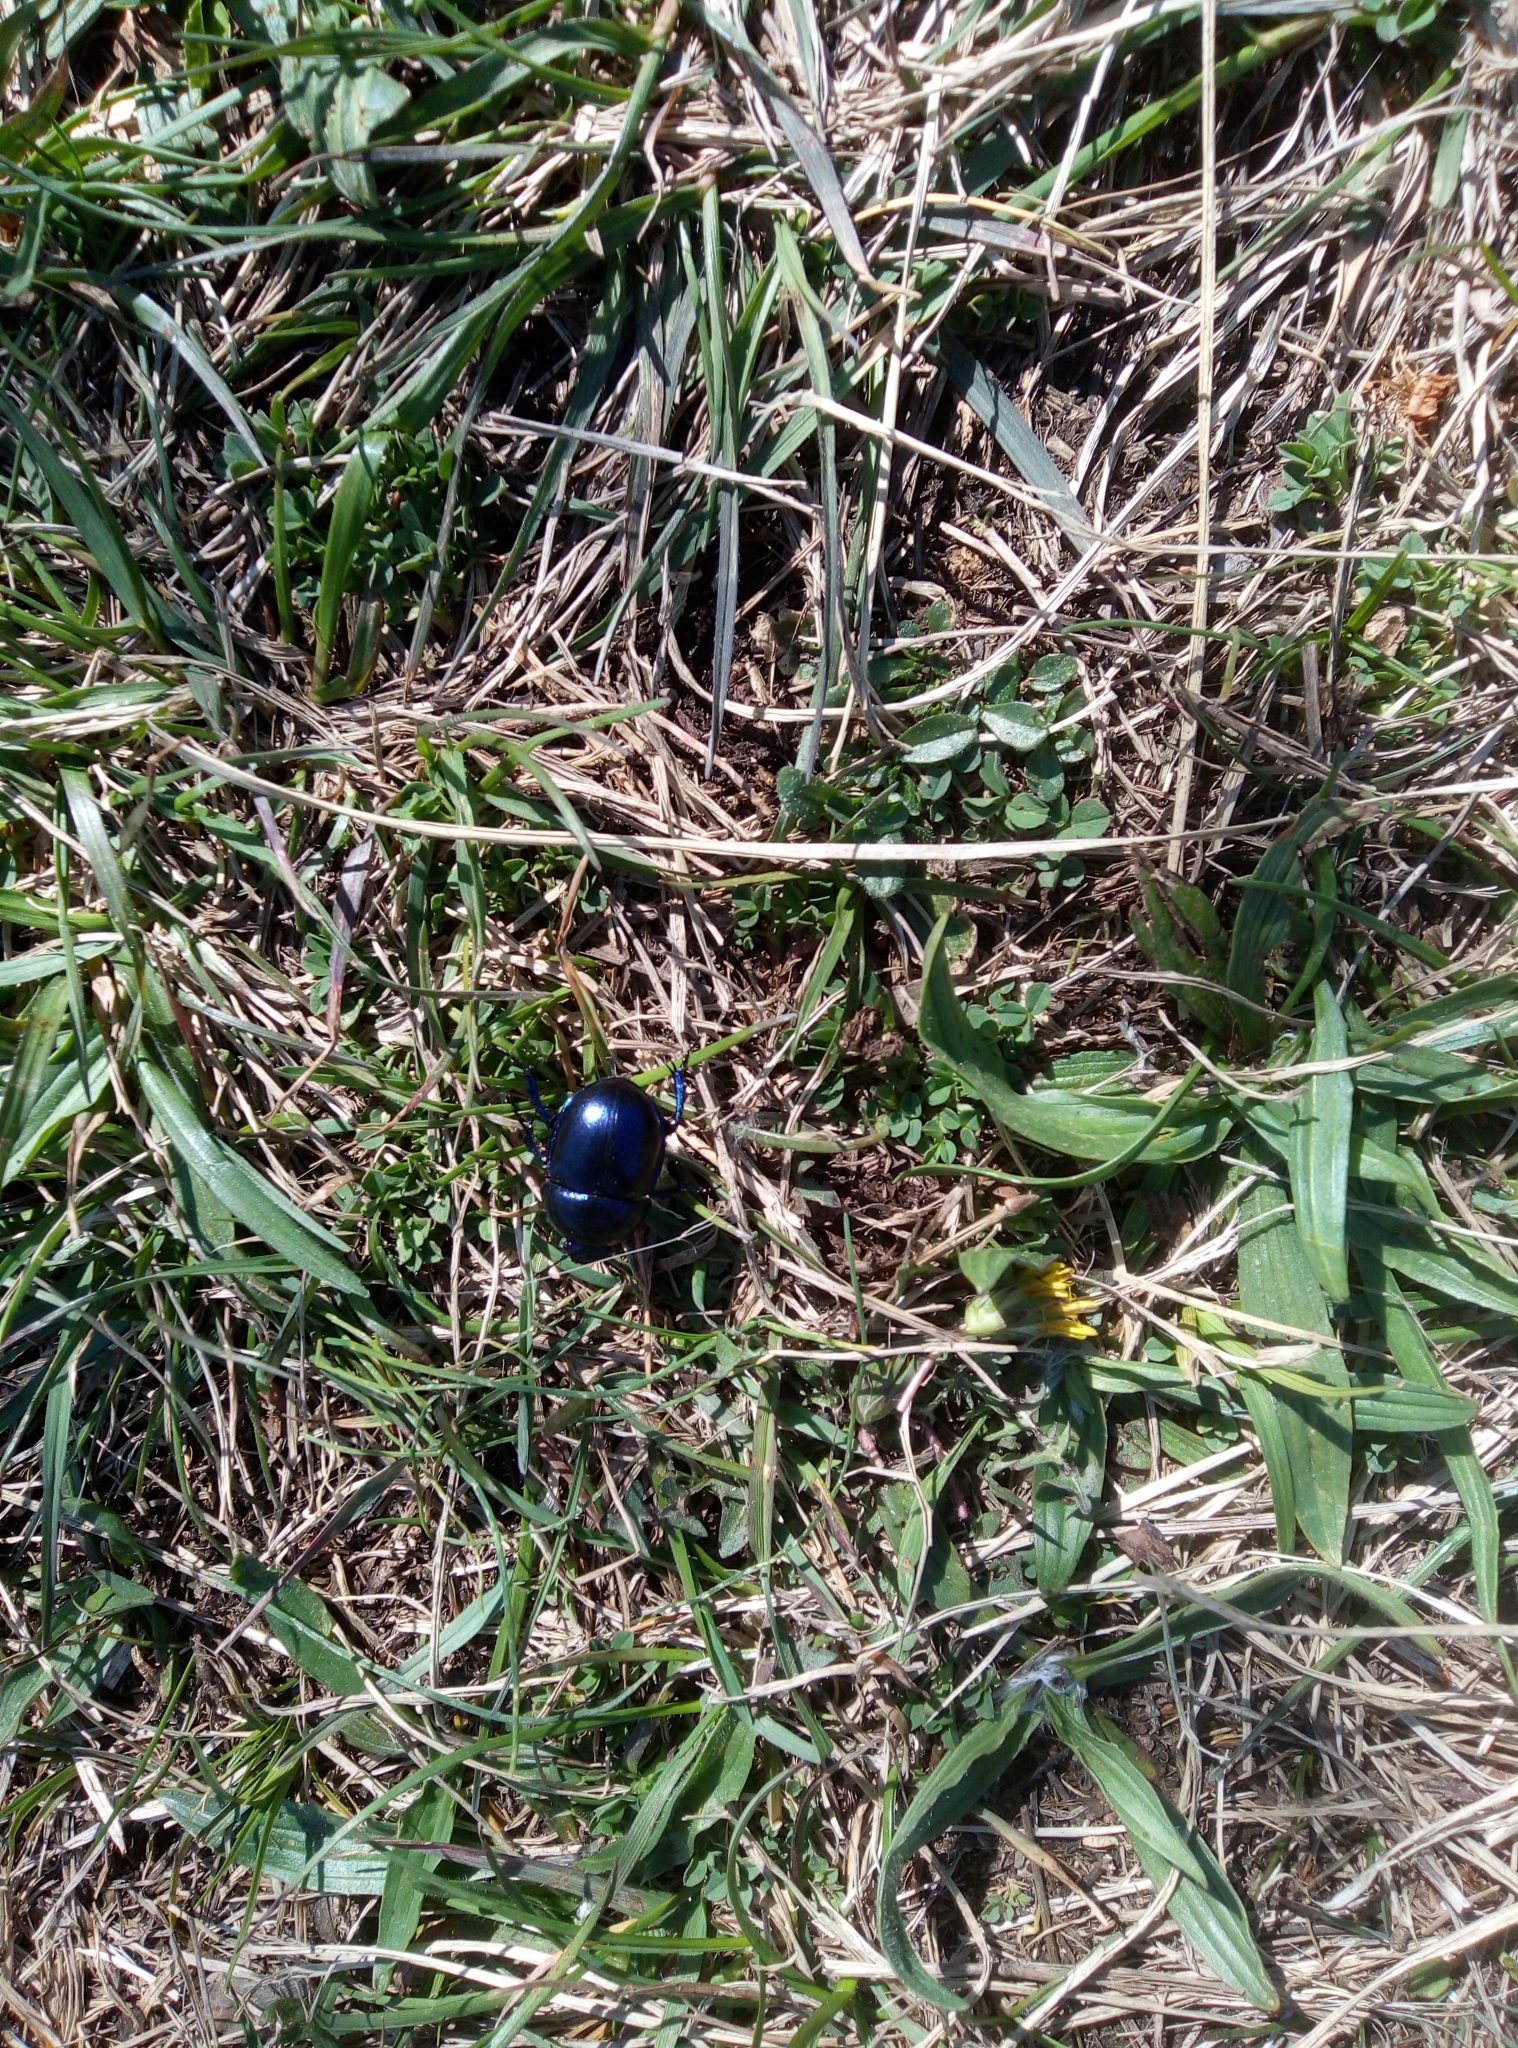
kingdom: Animalia
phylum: Arthropoda
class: Insecta
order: Coleoptera
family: Geotrupidae
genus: Trypocopris
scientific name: Trypocopris vernalis
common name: Spring dumbledor
